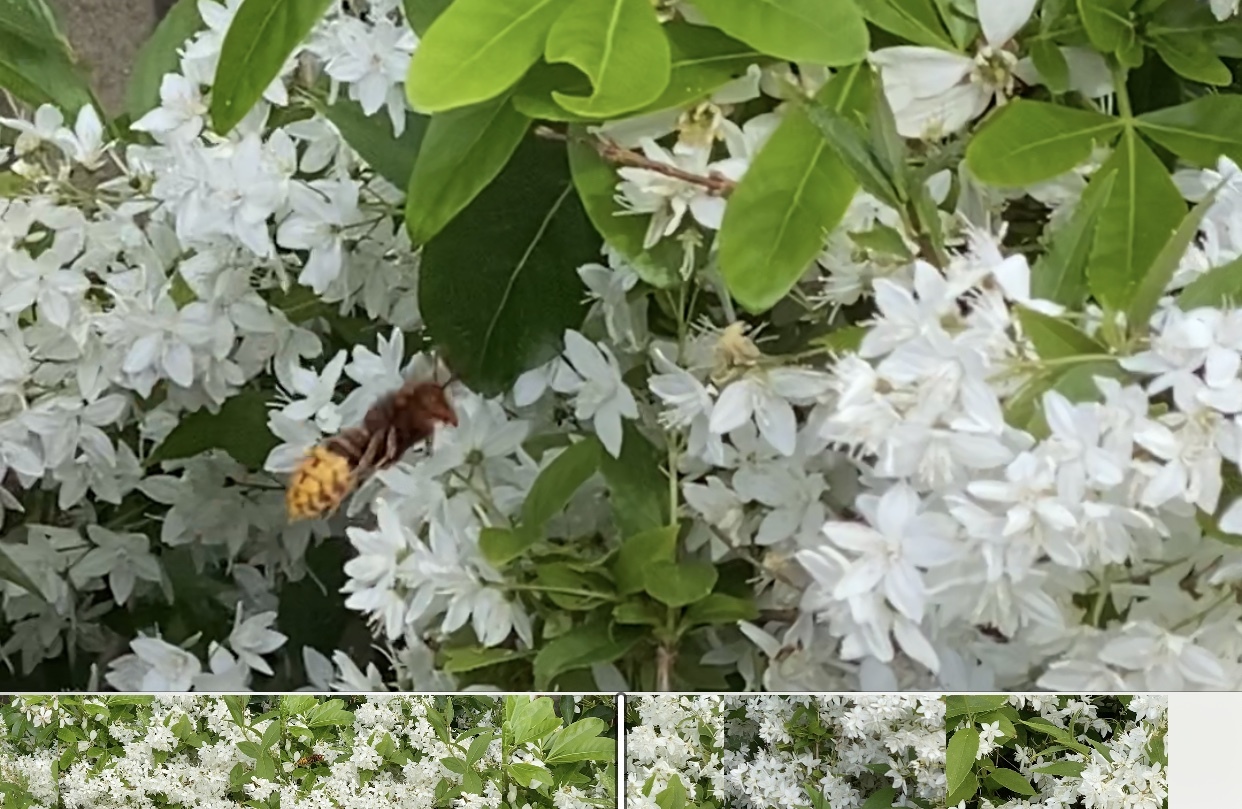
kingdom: Animalia
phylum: Arthropoda
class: Insecta
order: Hymenoptera
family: Vespidae
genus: Vespa
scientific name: Vespa crabro
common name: Hornet
